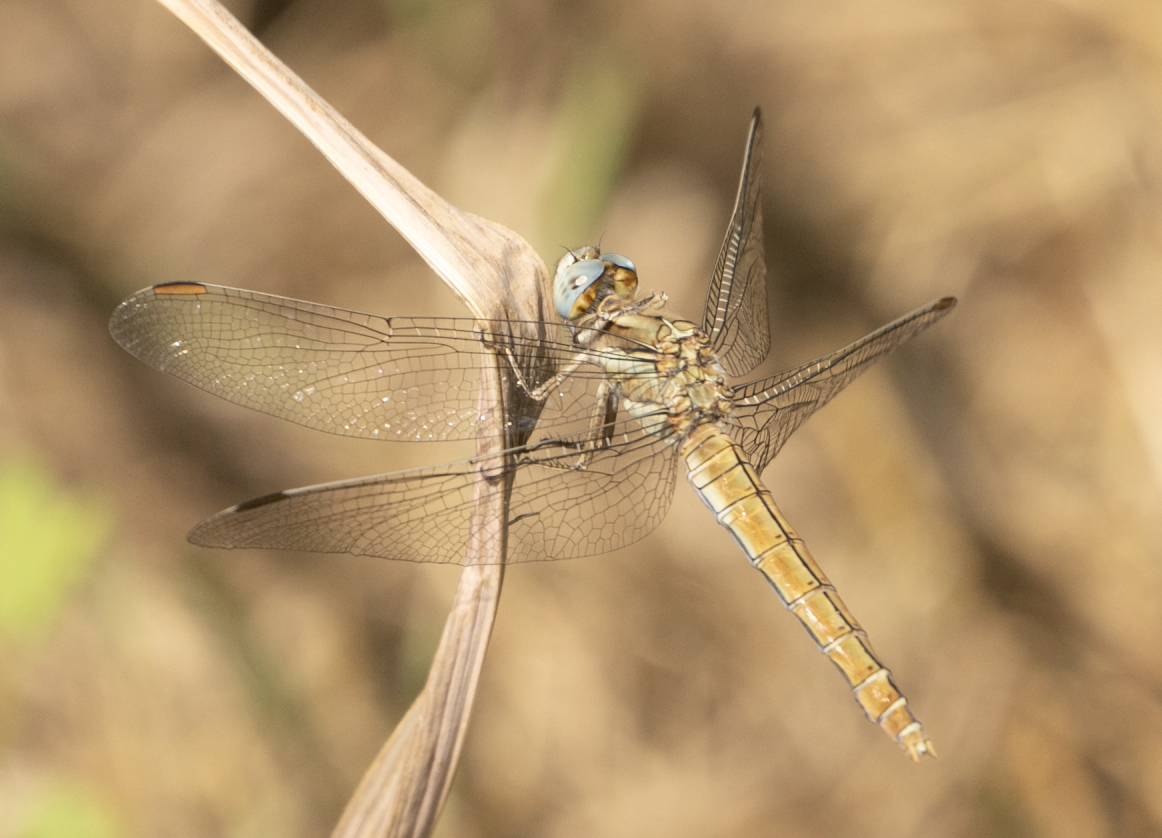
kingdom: Animalia
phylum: Arthropoda
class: Insecta
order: Odonata
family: Libellulidae
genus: Orthetrum
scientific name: Orthetrum brunneum
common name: Southern skimmer
